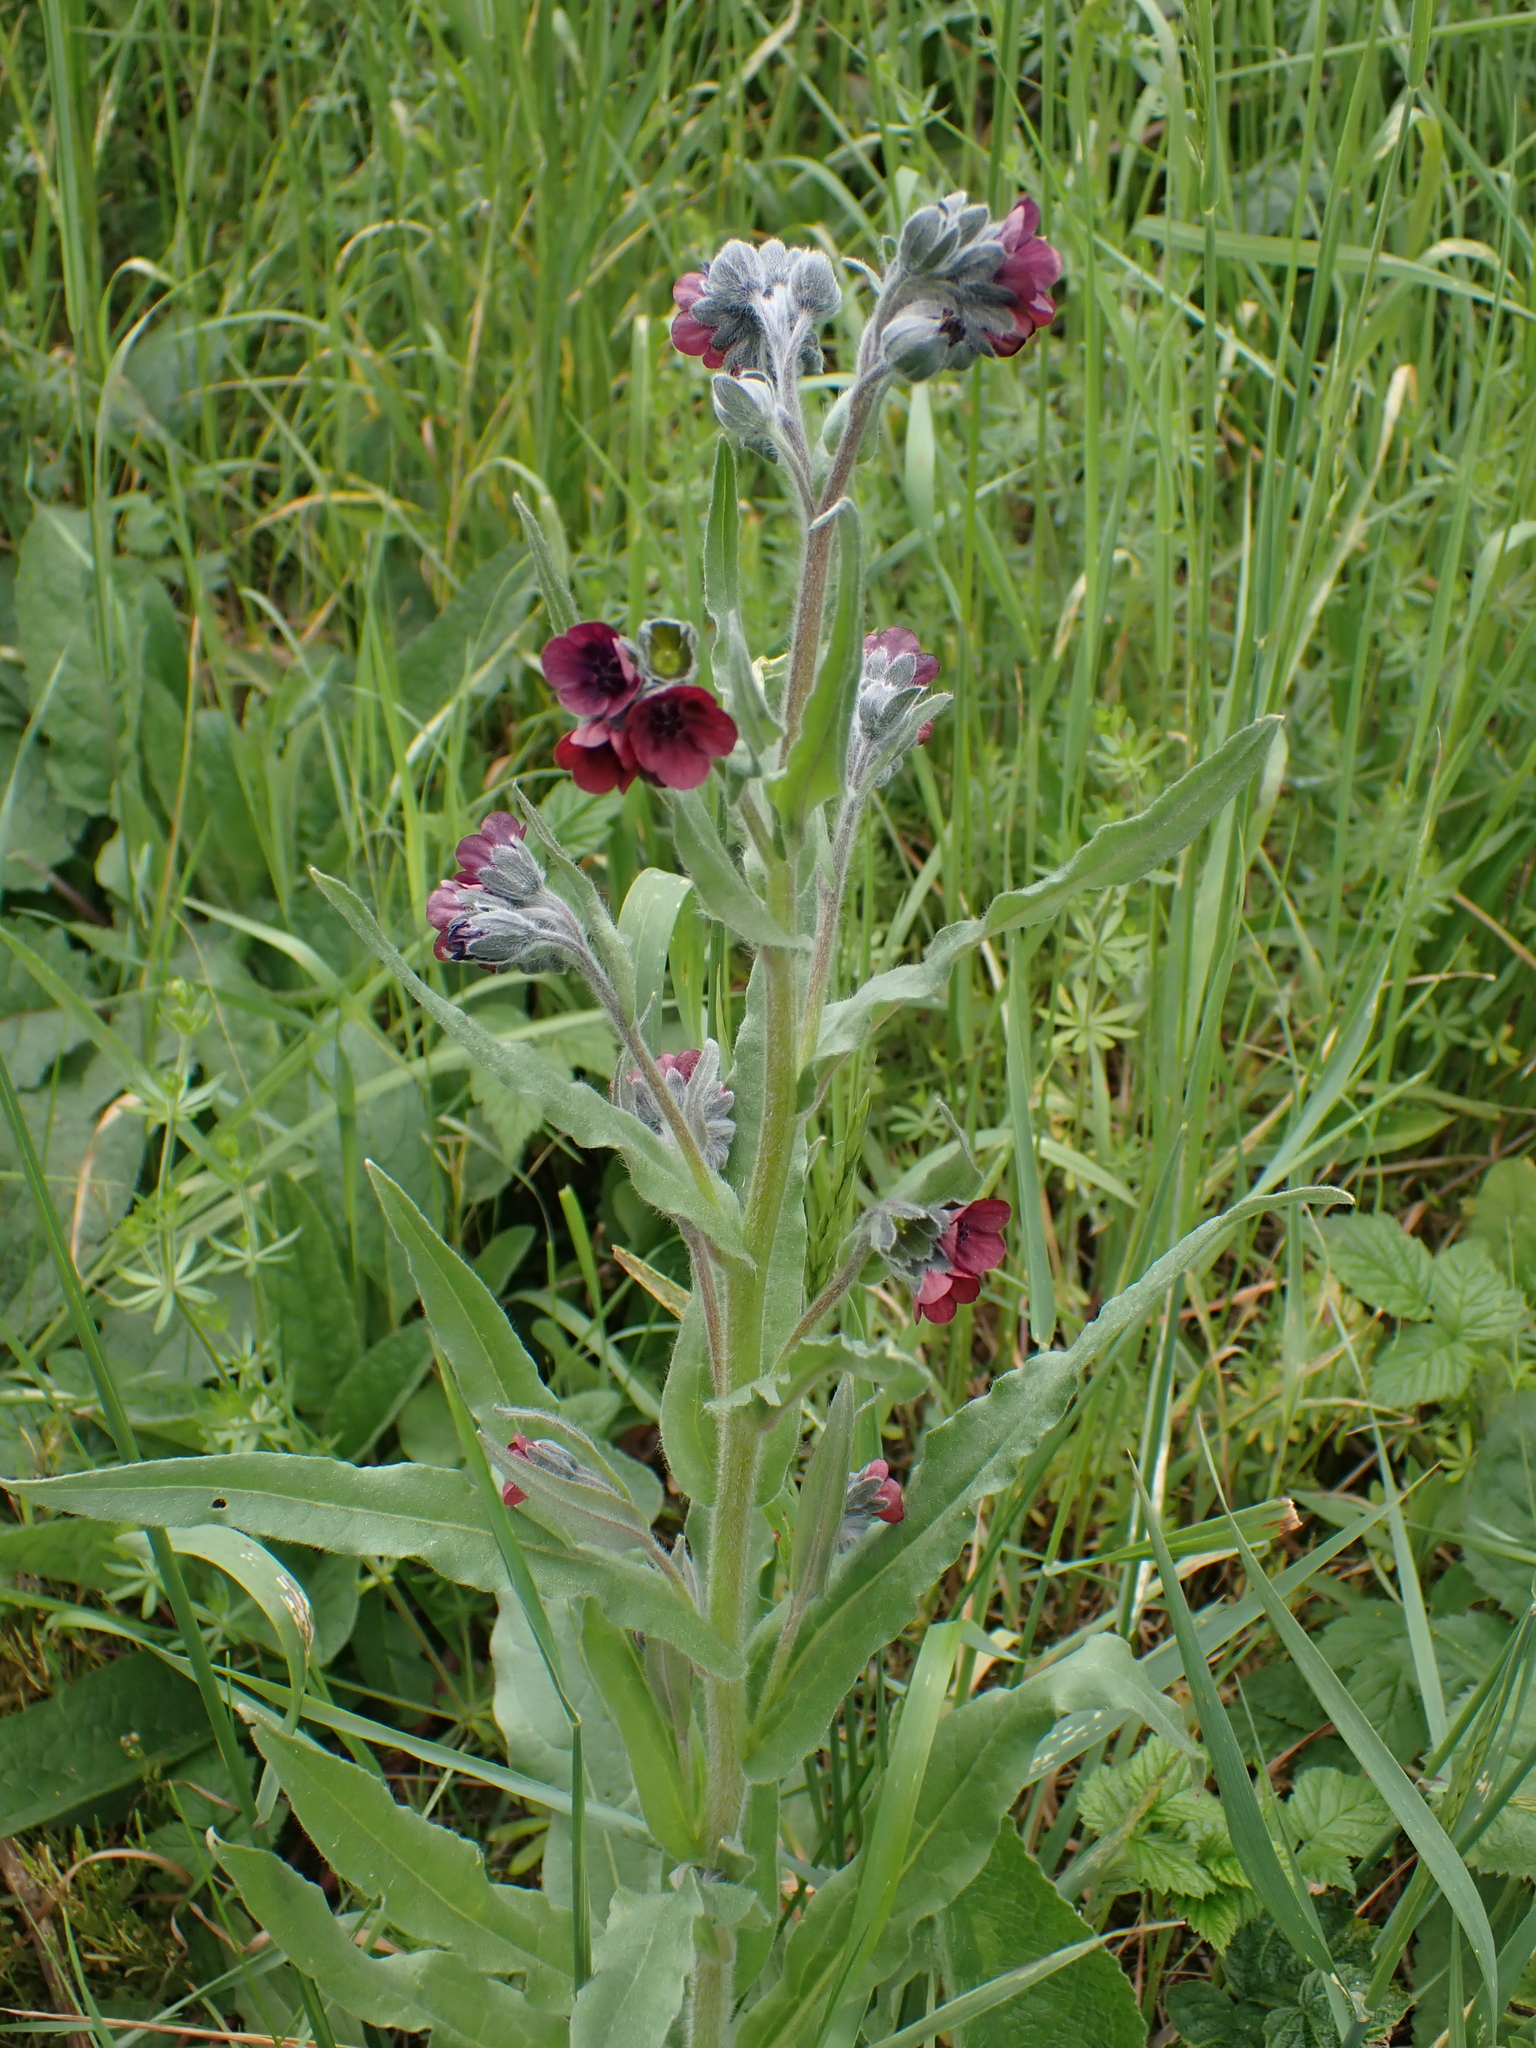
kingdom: Plantae
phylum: Tracheophyta
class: Magnoliopsida
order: Boraginales
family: Boraginaceae
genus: Cynoglossum
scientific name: Cynoglossum officinale
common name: Hound's-tongue
